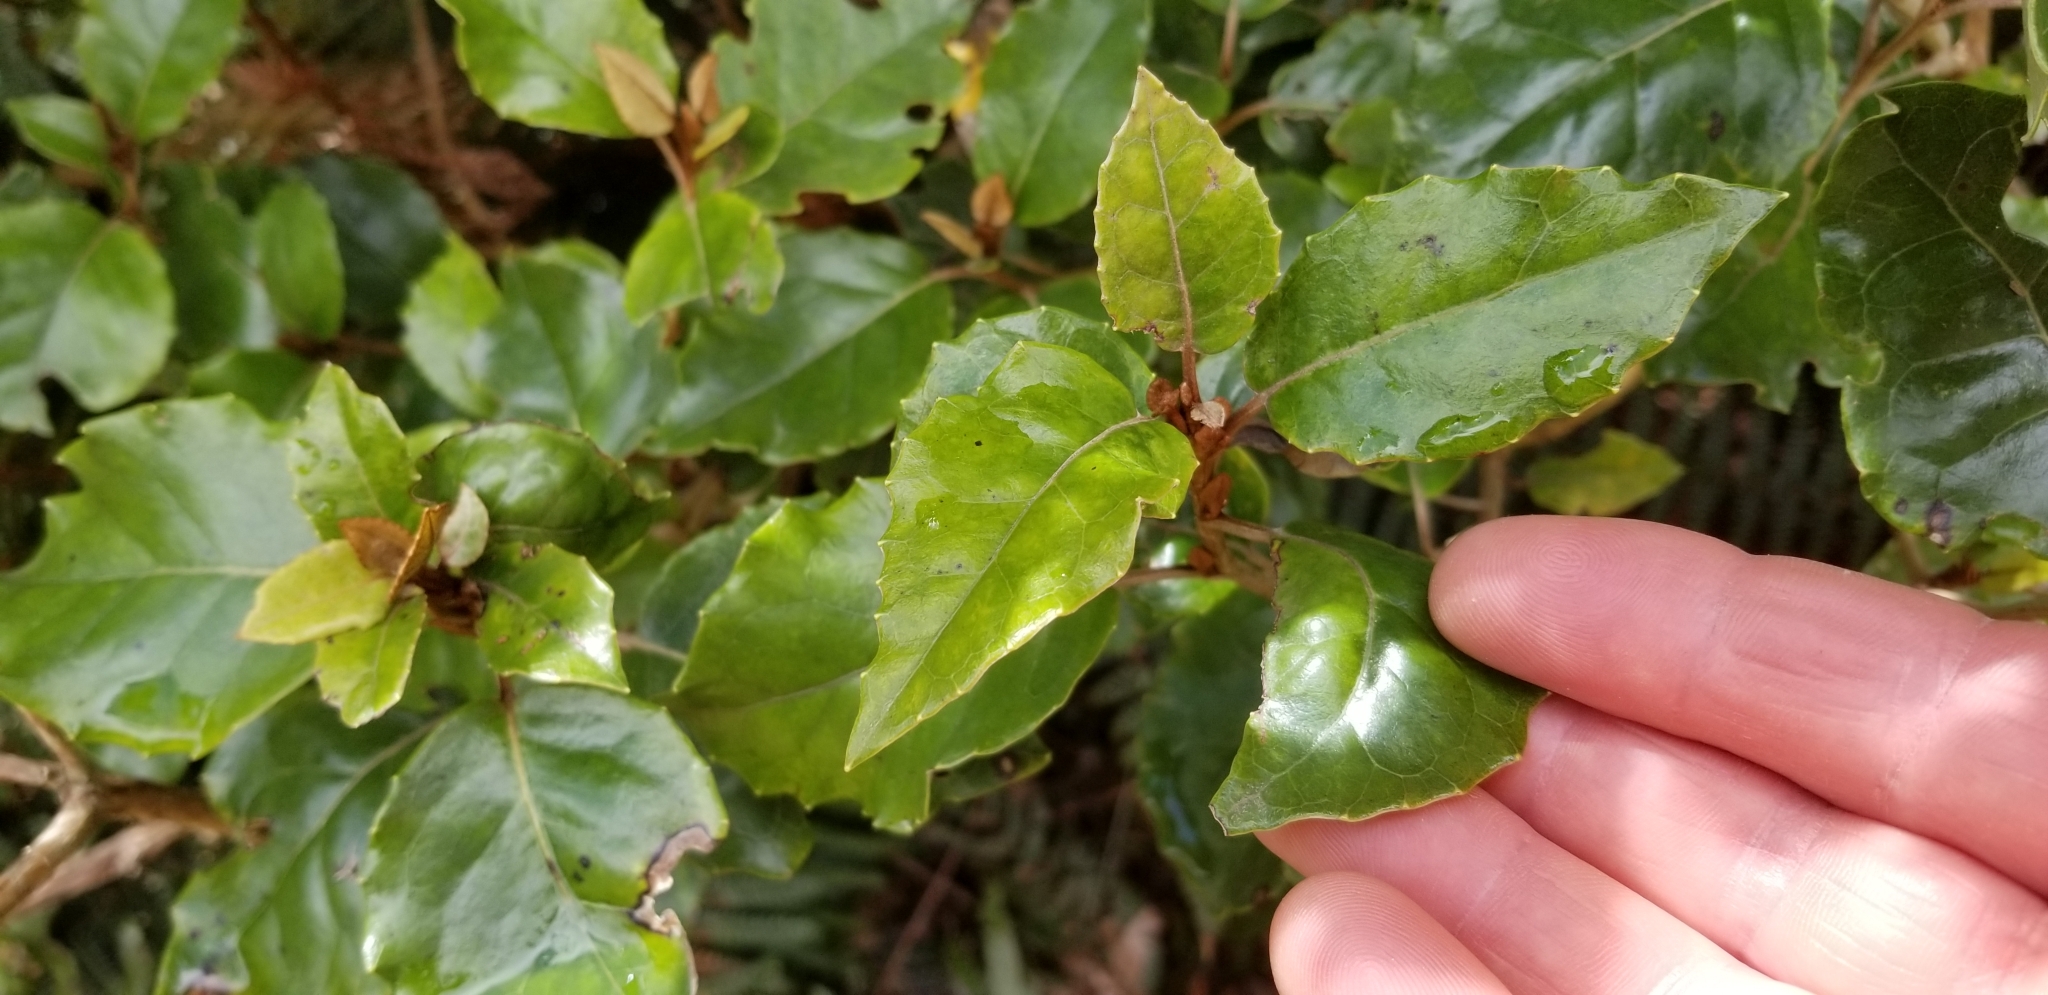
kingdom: Plantae
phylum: Tracheophyta
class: Magnoliopsida
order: Asterales
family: Asteraceae
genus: Olearia
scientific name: Olearia arborescens
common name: Glossy tree daisy
